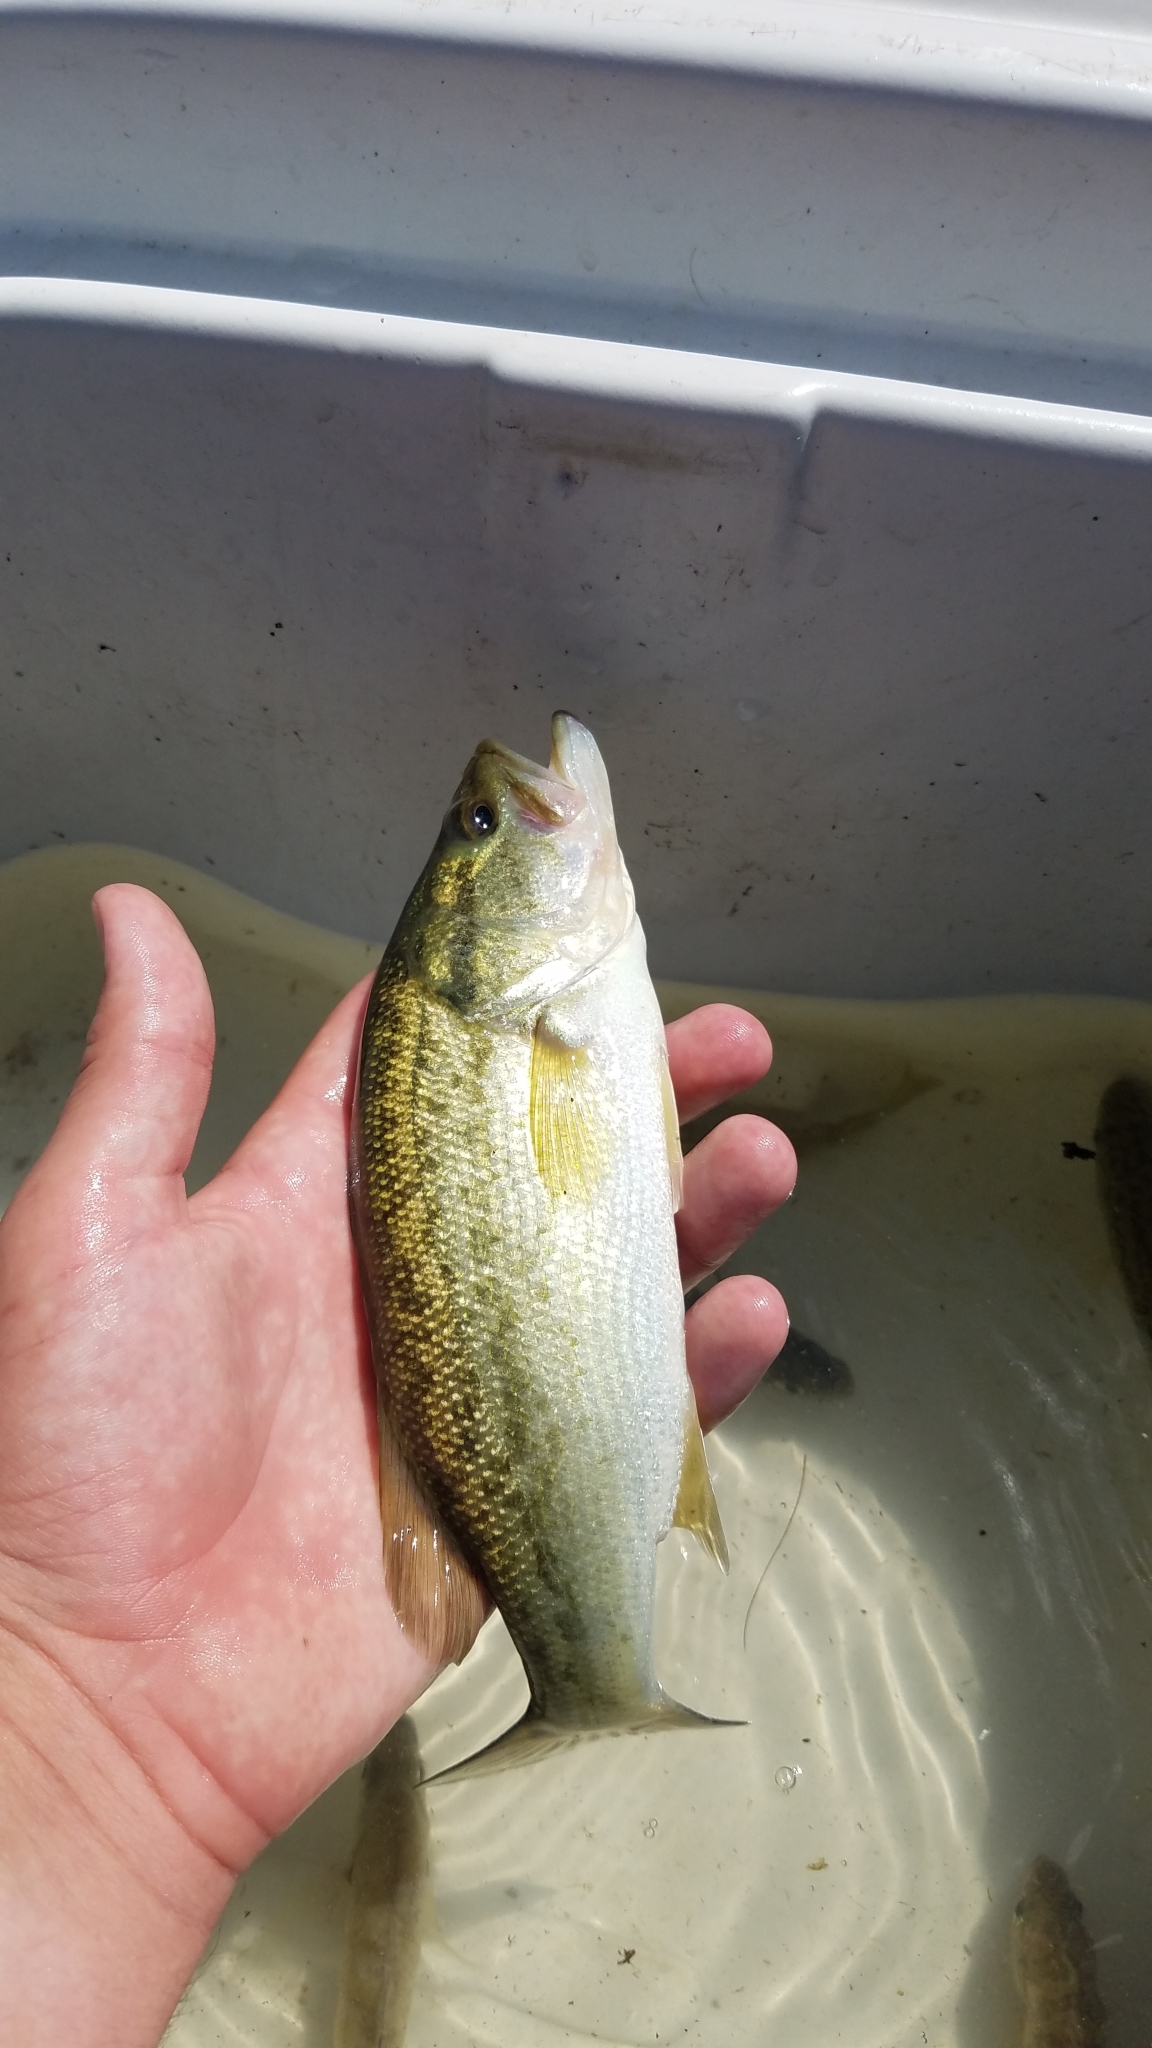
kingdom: Animalia
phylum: Chordata
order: Perciformes
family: Centrarchidae
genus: Micropterus
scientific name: Micropterus
